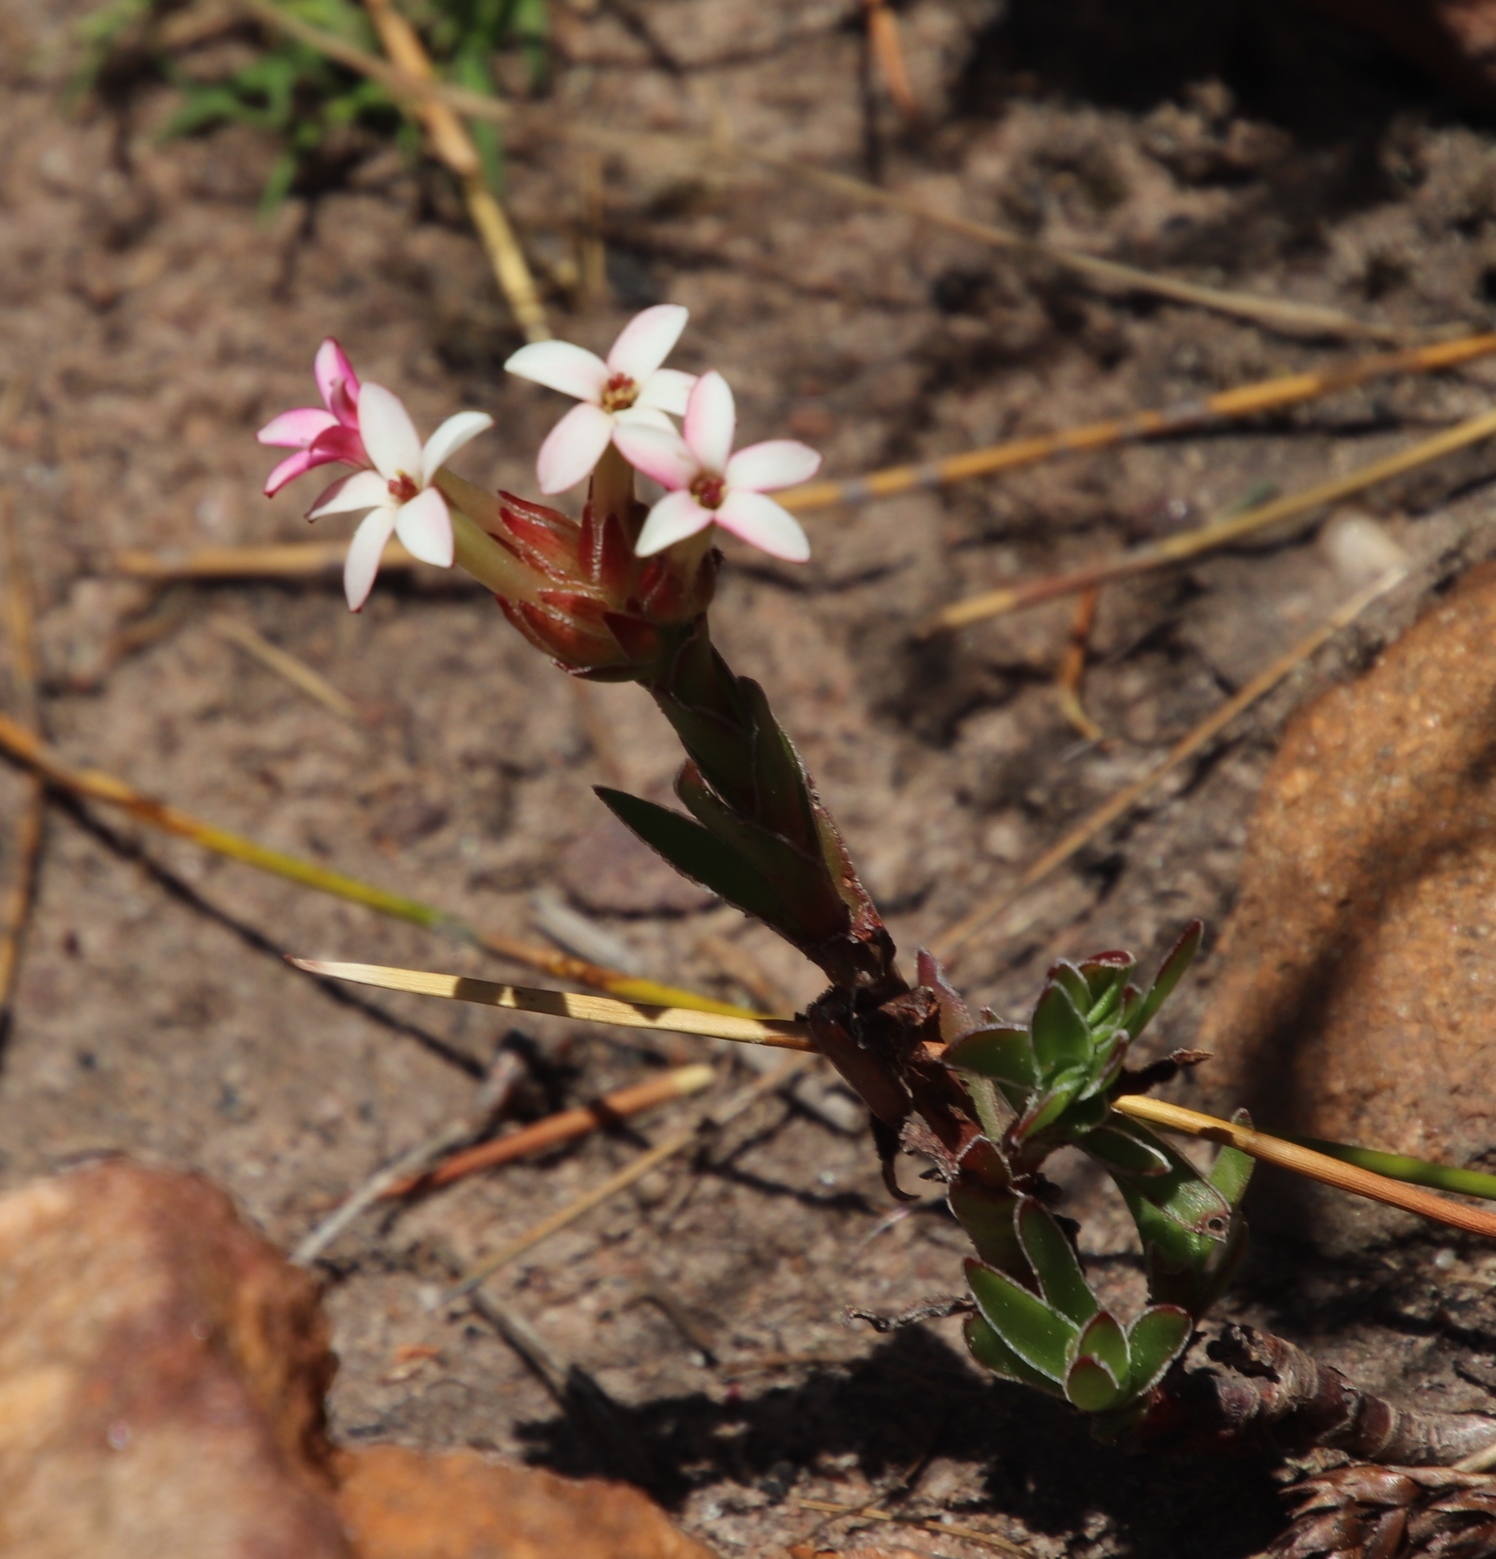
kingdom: Plantae
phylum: Tracheophyta
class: Magnoliopsida
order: Saxifragales
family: Crassulaceae
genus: Crassula
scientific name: Crassula fascicularis
